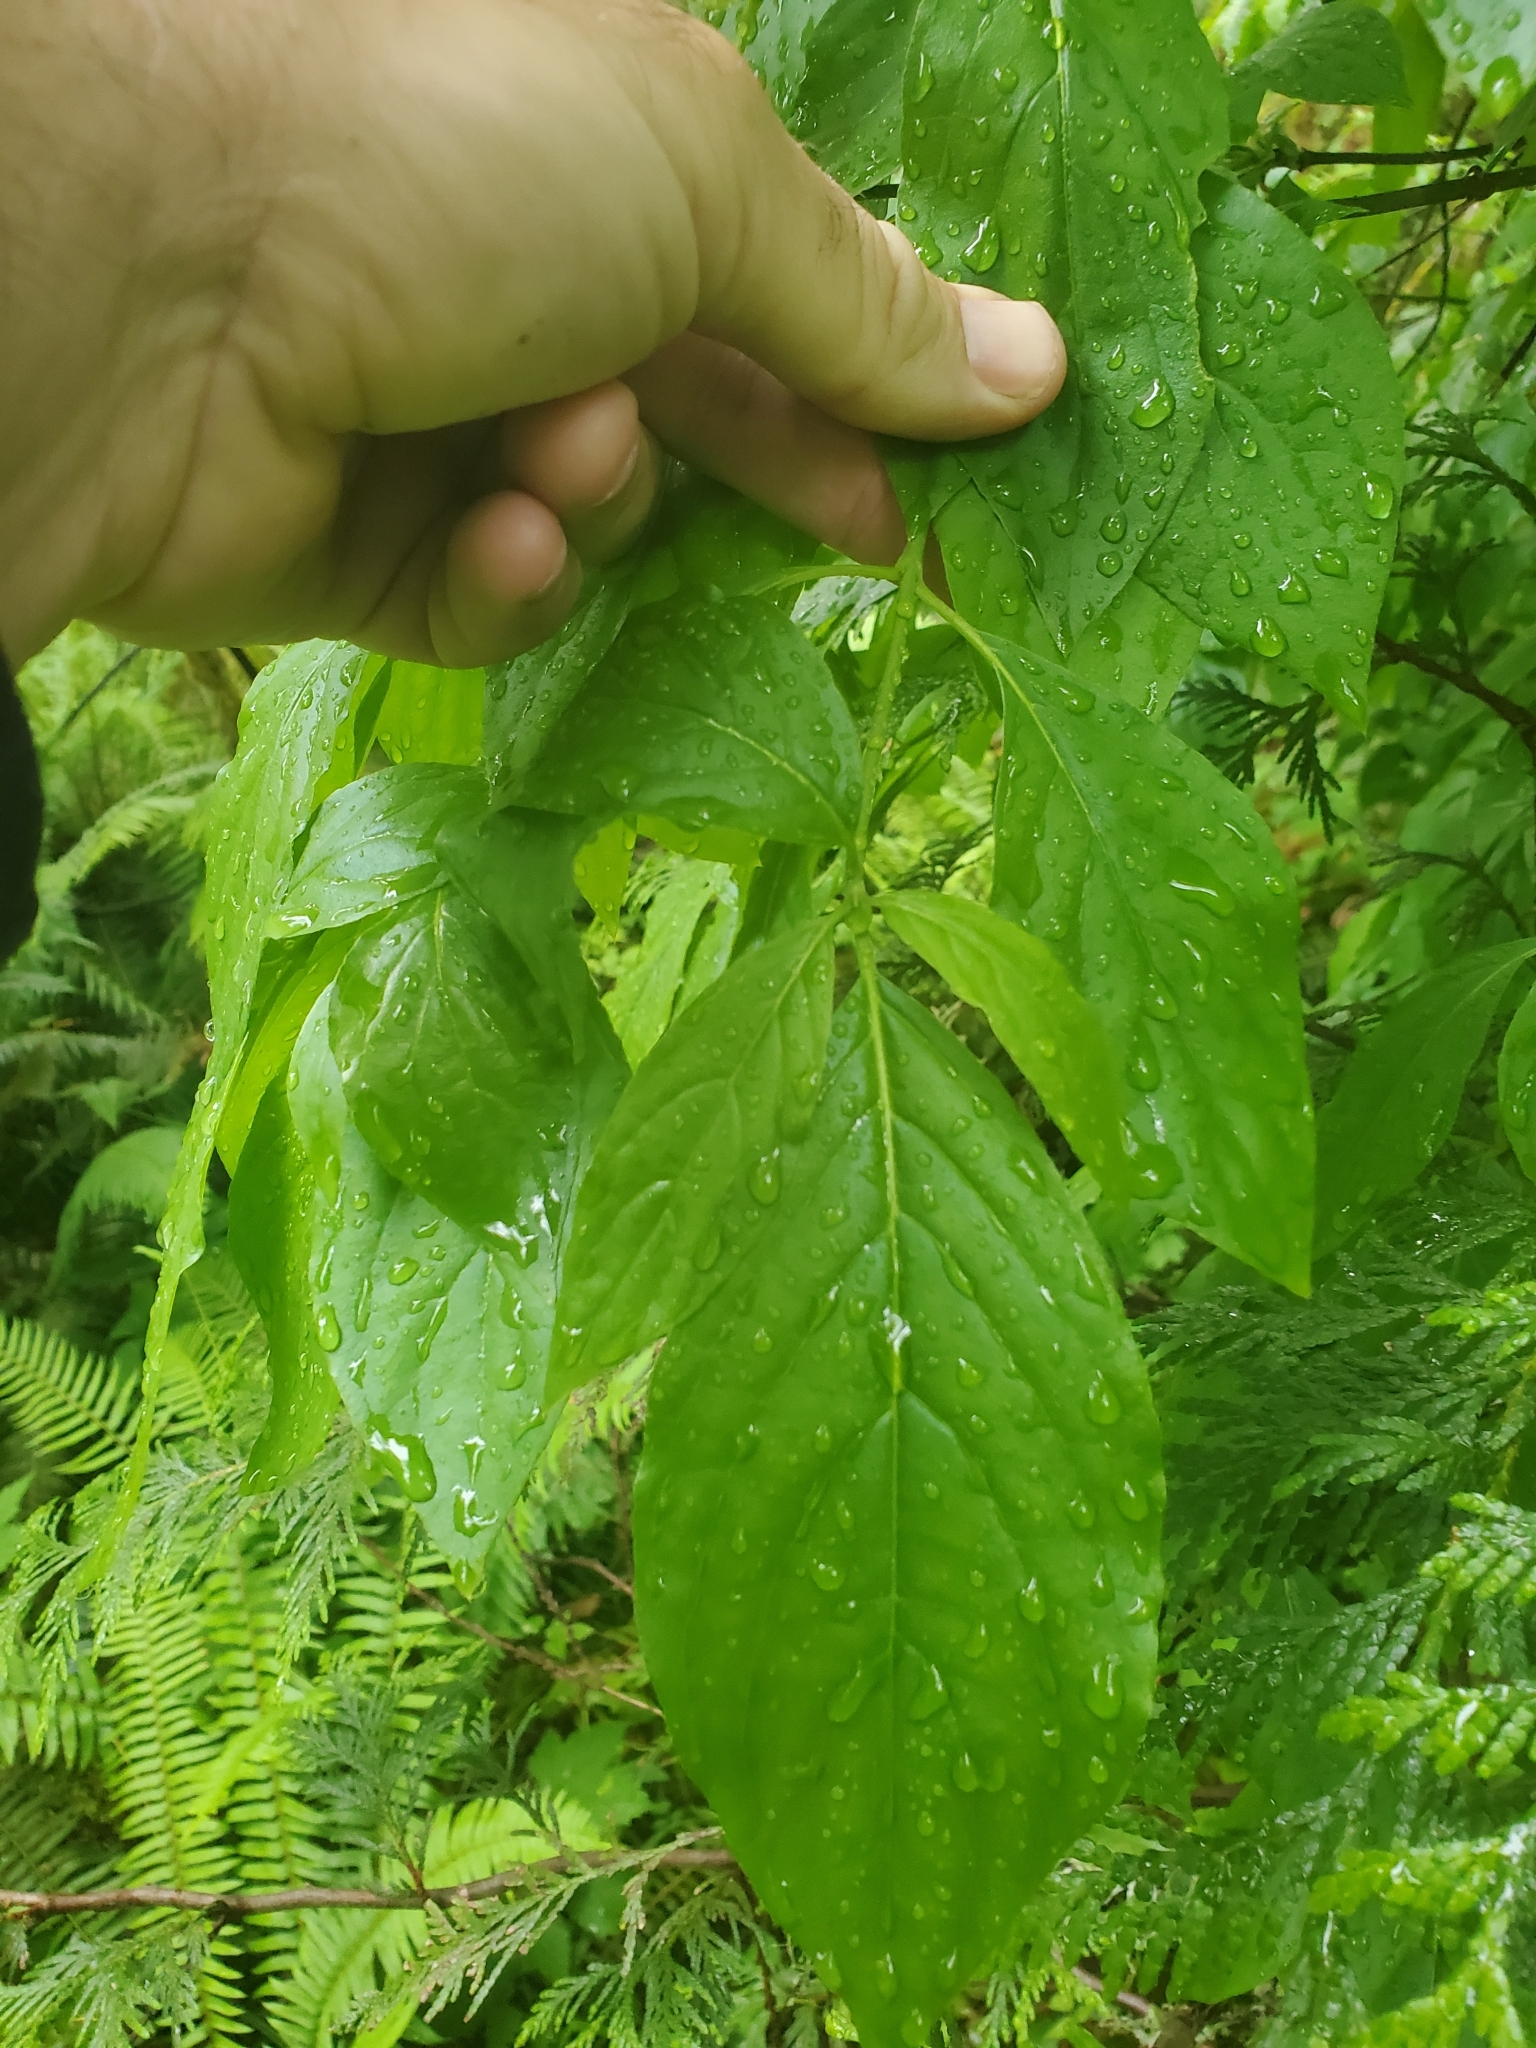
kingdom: Plantae
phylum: Tracheophyta
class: Magnoliopsida
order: Cornales
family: Cornaceae
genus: Cornus
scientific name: Cornus nuttallii
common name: Pacific dogwood
